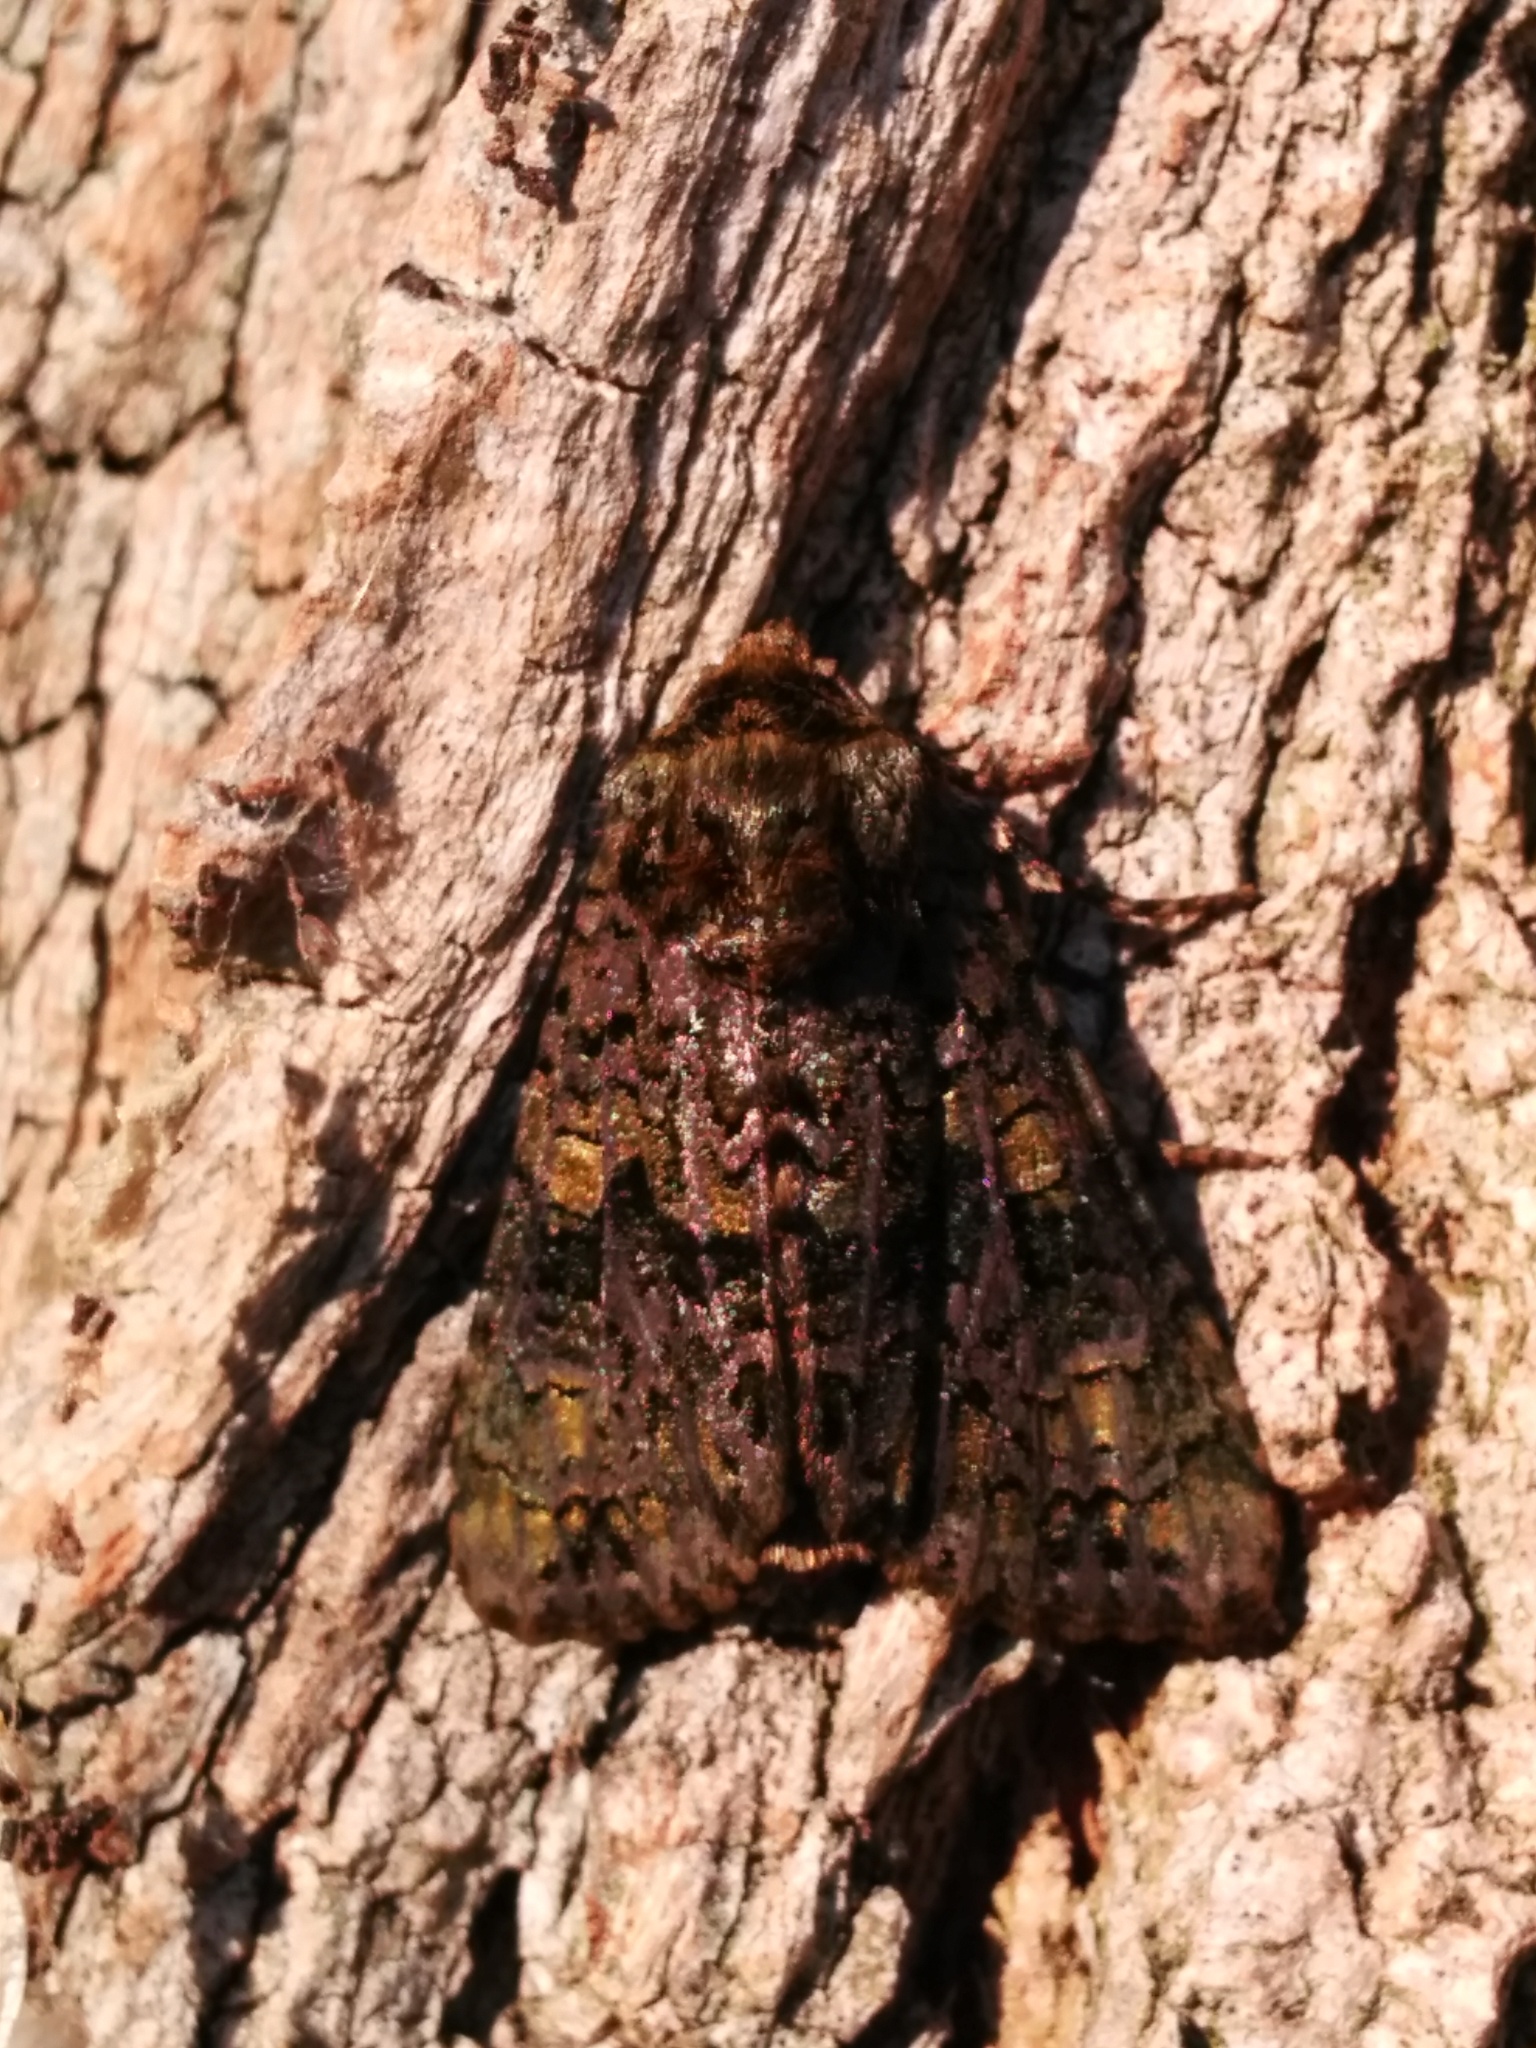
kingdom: Animalia
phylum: Arthropoda
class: Insecta
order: Lepidoptera
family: Noctuidae
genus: Craniophora
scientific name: Craniophora ligustri
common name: Coronet
